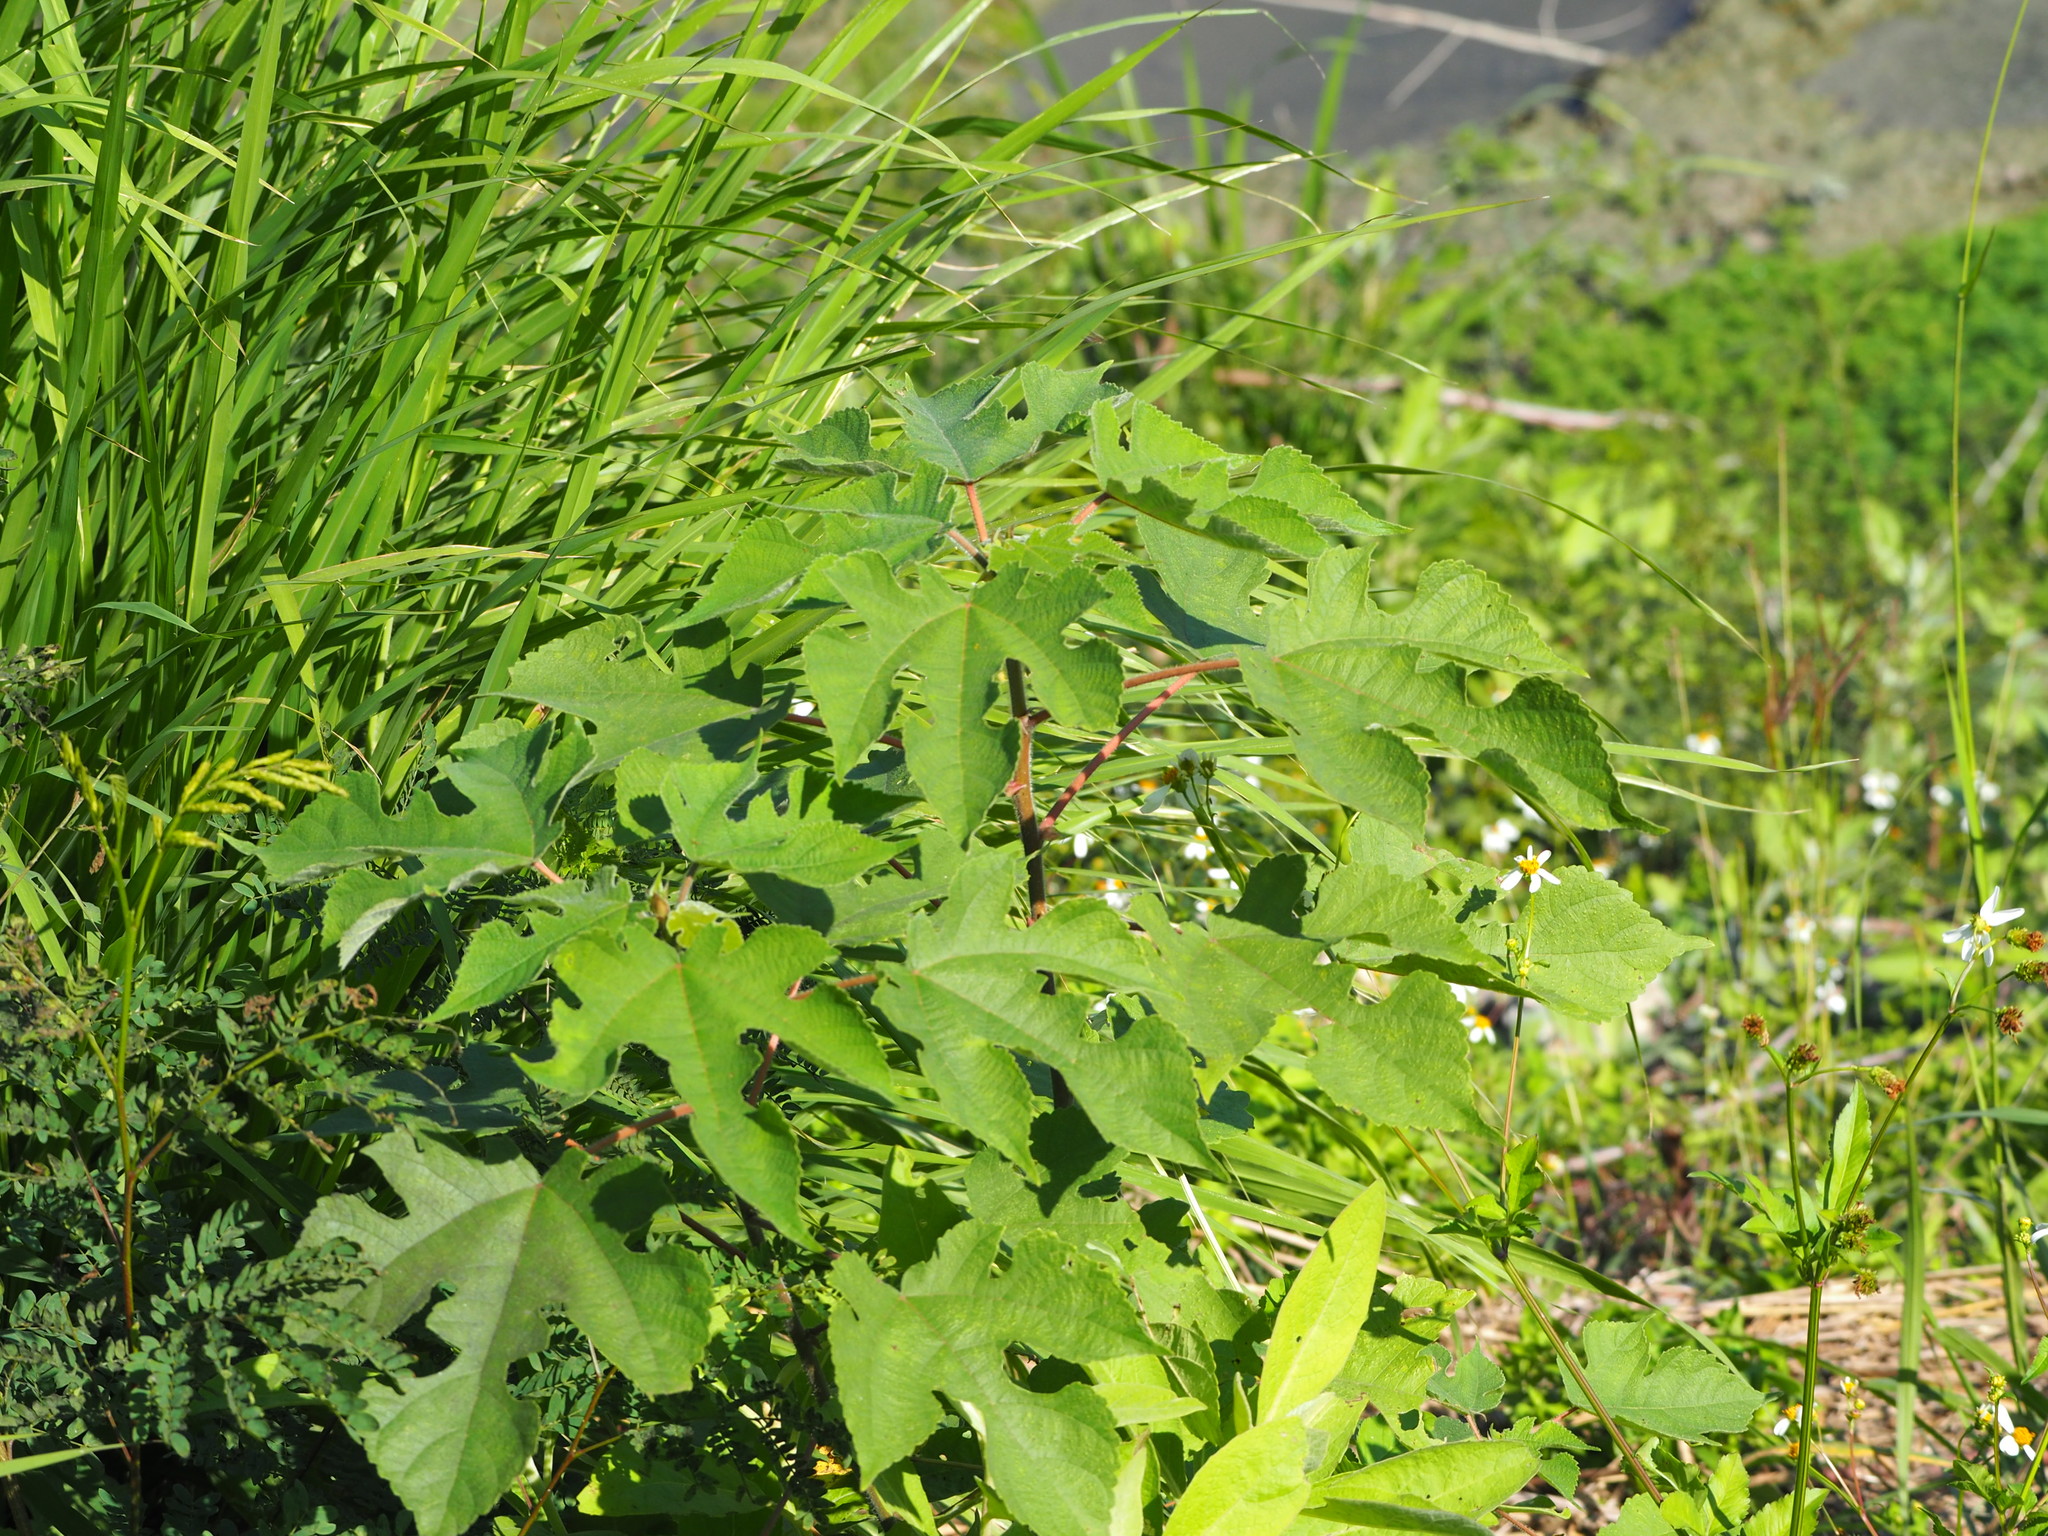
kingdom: Plantae
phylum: Tracheophyta
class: Magnoliopsida
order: Rosales
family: Moraceae
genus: Broussonetia
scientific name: Broussonetia papyrifera
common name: Paper mulberry
